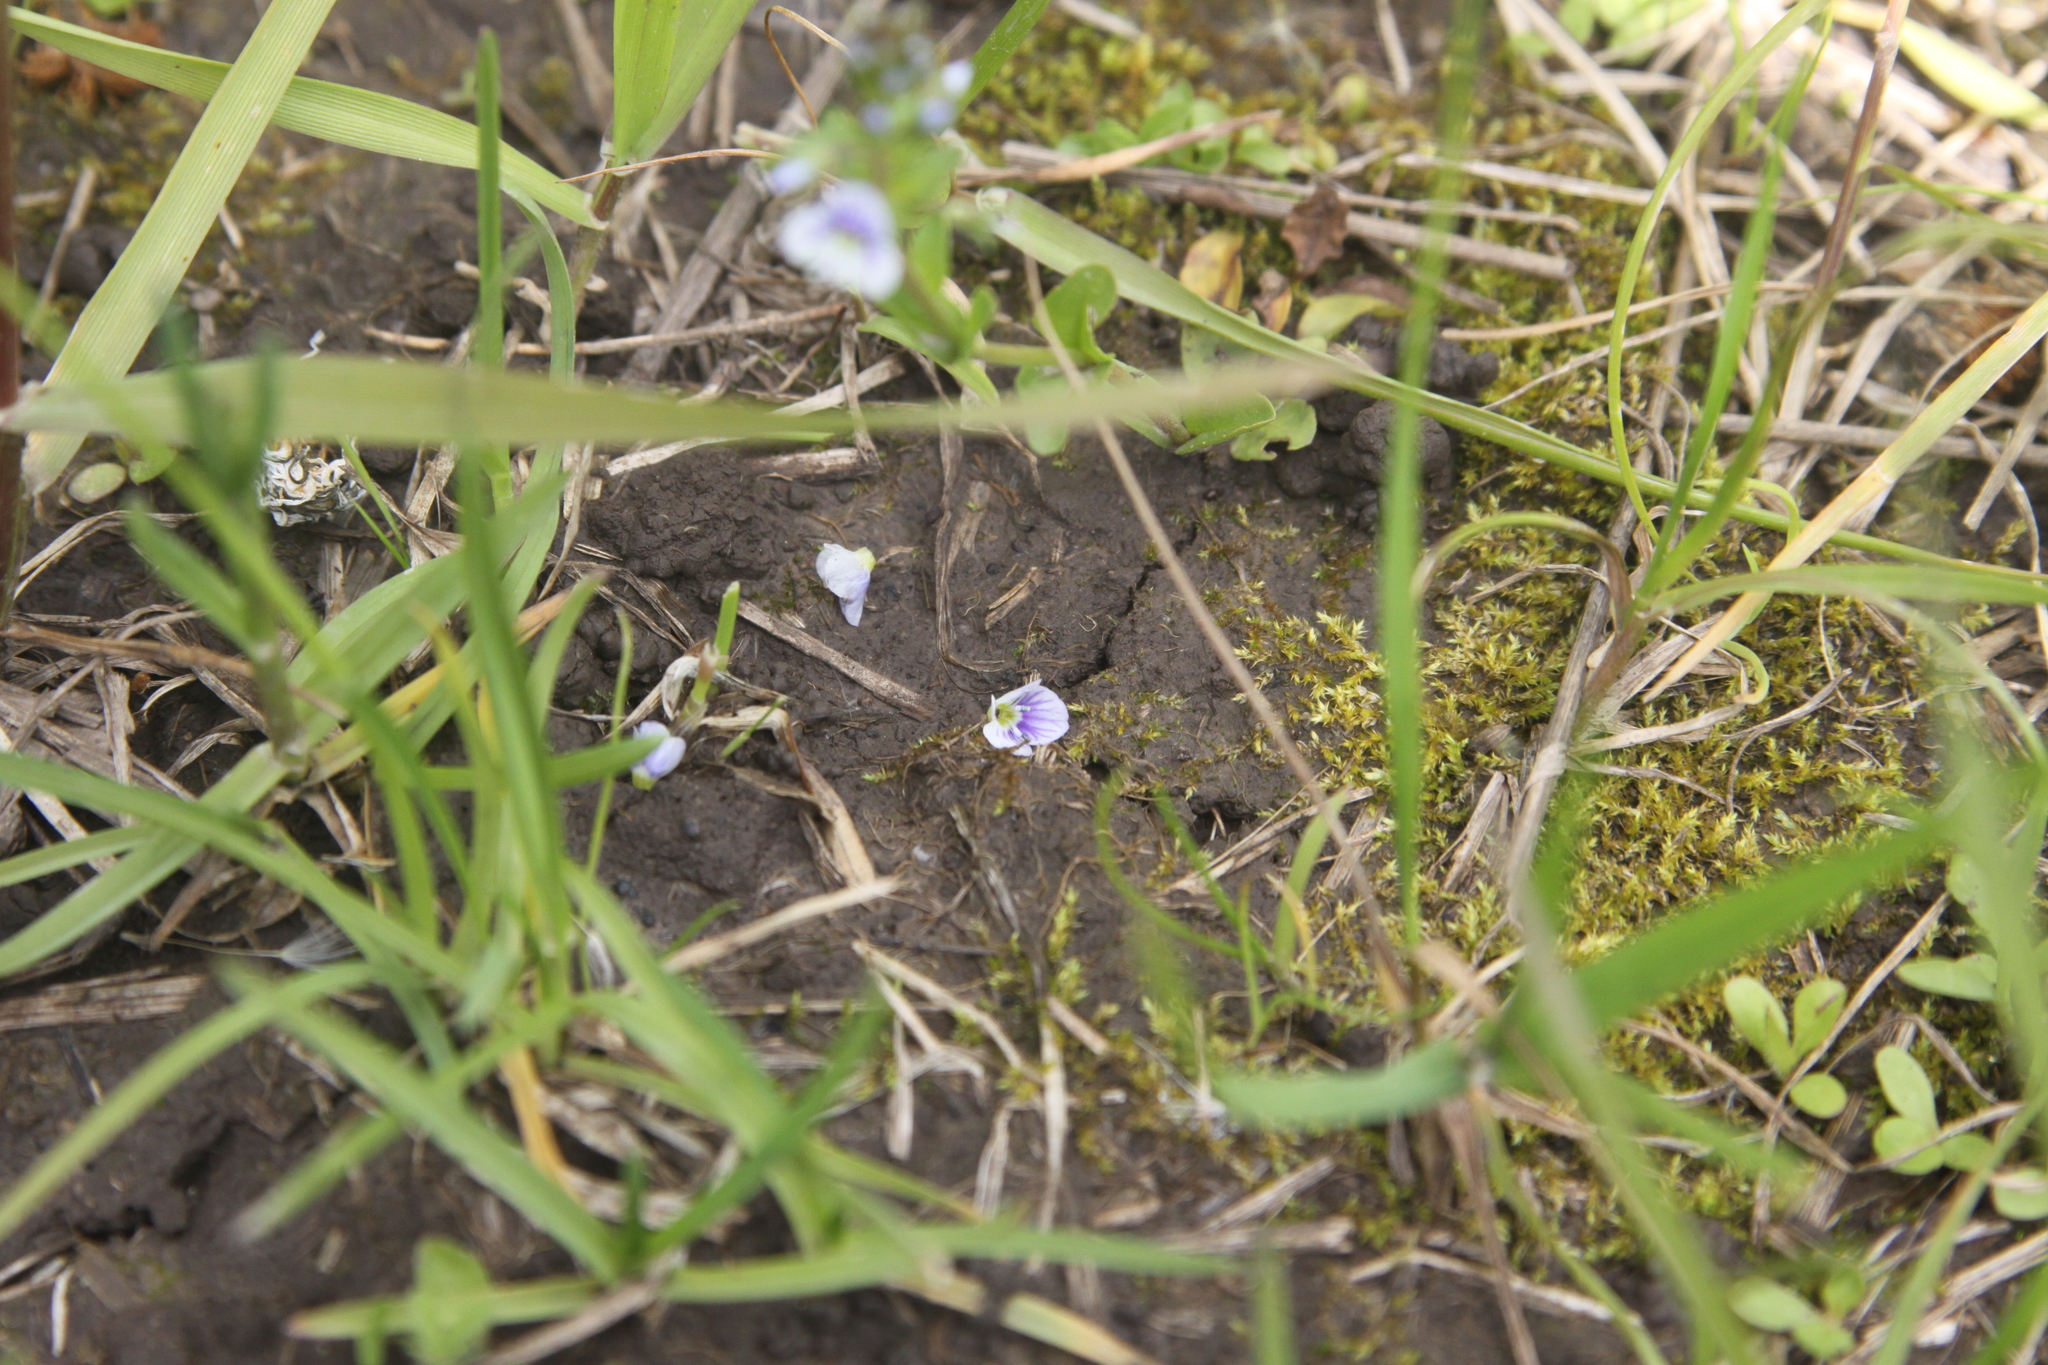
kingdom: Plantae
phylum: Tracheophyta
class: Magnoliopsida
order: Lamiales
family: Plantaginaceae
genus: Veronica
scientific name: Veronica serpyllifolia
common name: Thyme-leaved speedwell
